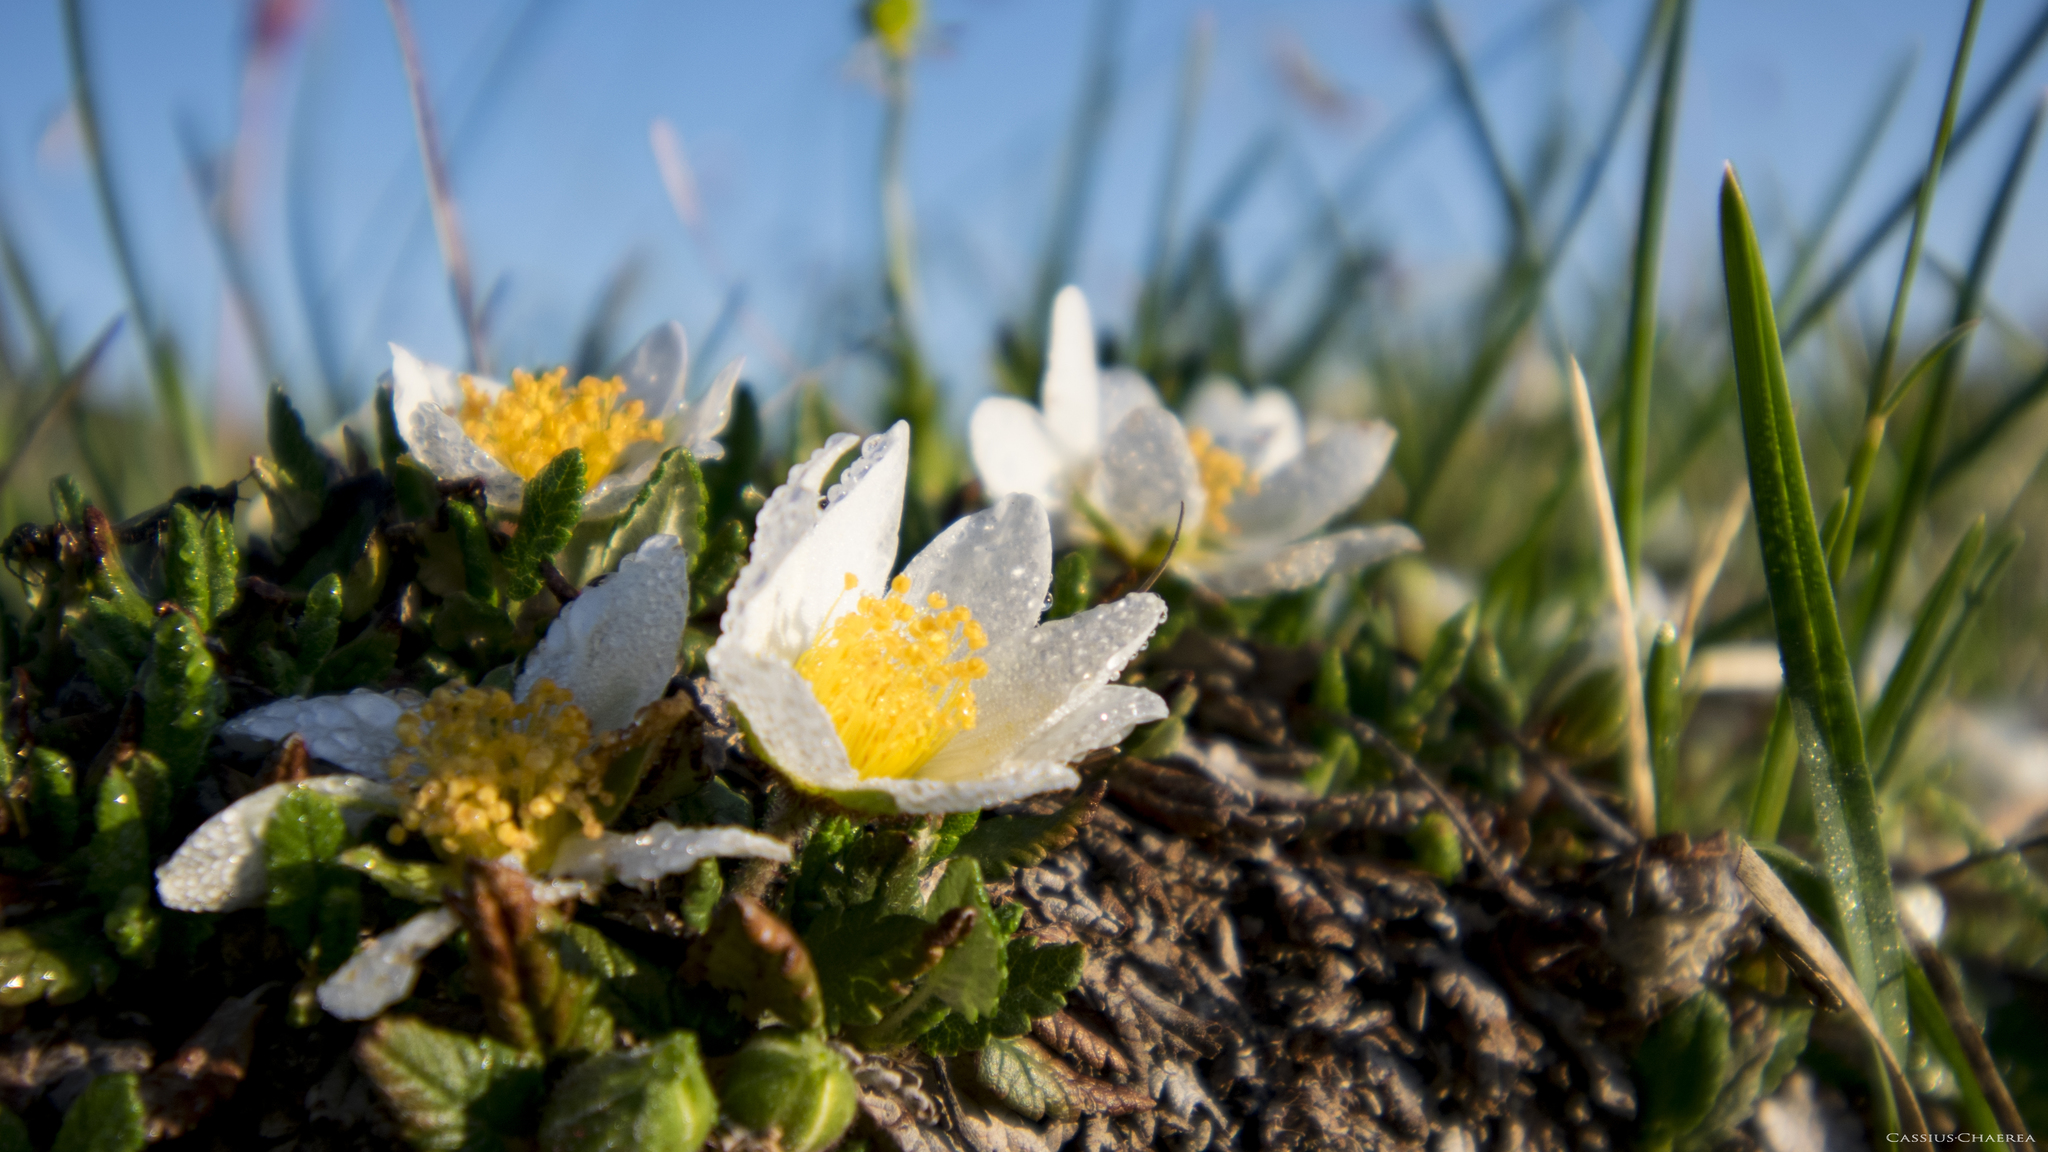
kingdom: Plantae
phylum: Tracheophyta
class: Magnoliopsida
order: Rosales
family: Rosaceae
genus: Dryas
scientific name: Dryas octopetala
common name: Eight-petal mountain-avens
